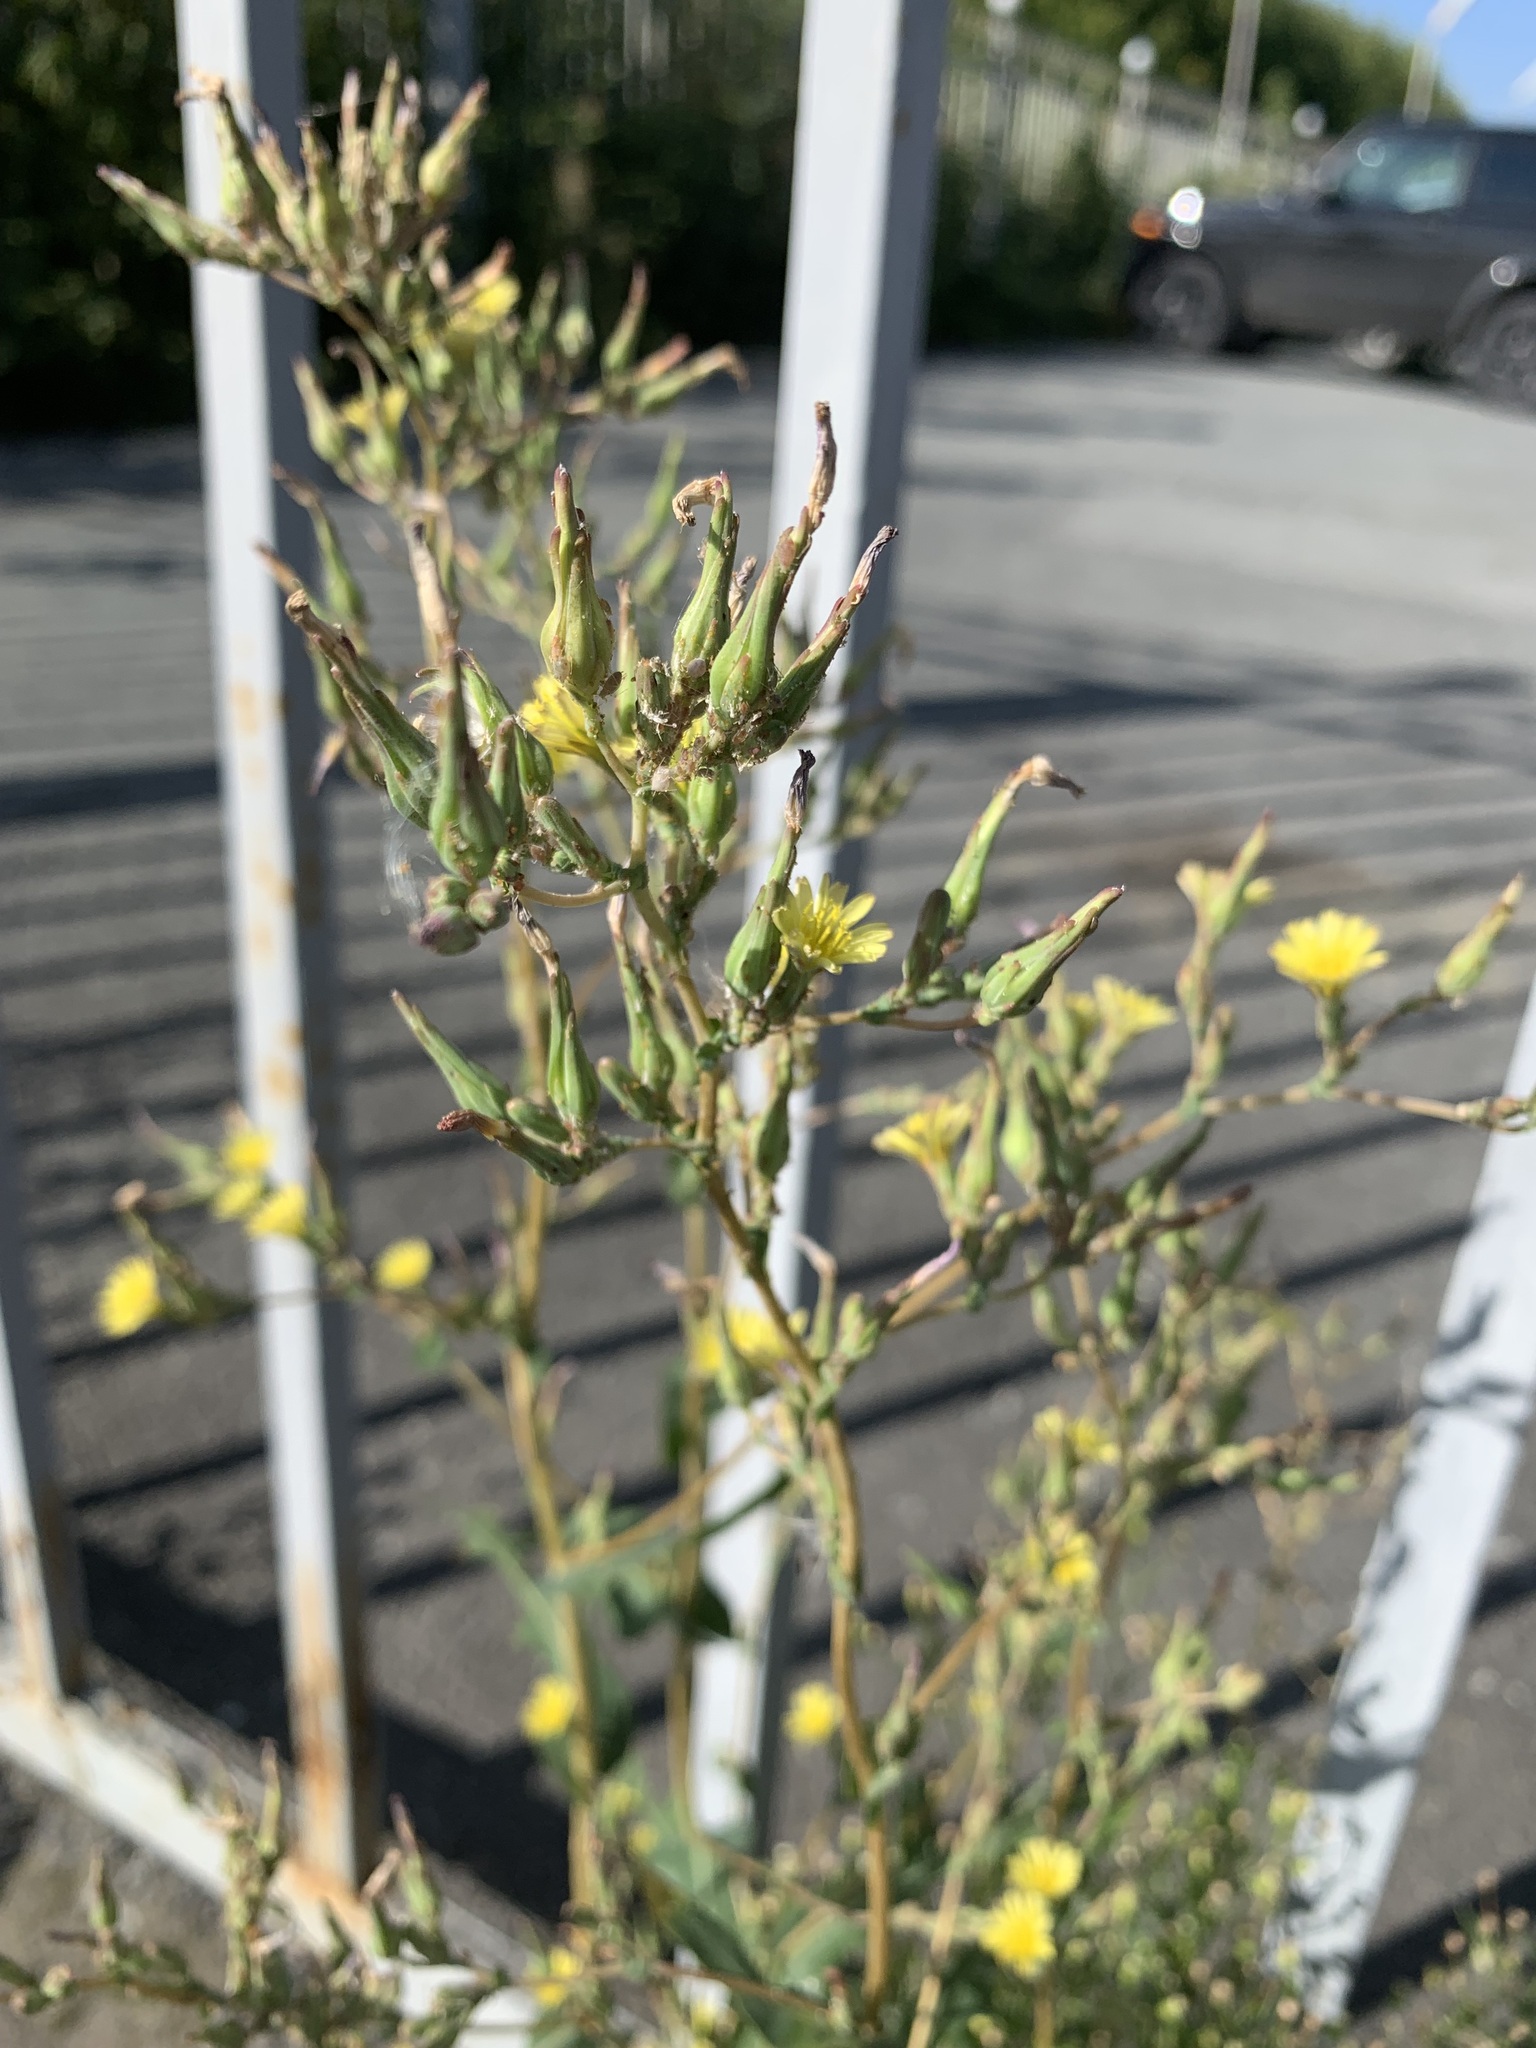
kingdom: Plantae
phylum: Tracheophyta
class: Magnoliopsida
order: Asterales
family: Asteraceae
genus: Lactuca
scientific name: Lactuca serriola
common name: Prickly lettuce
